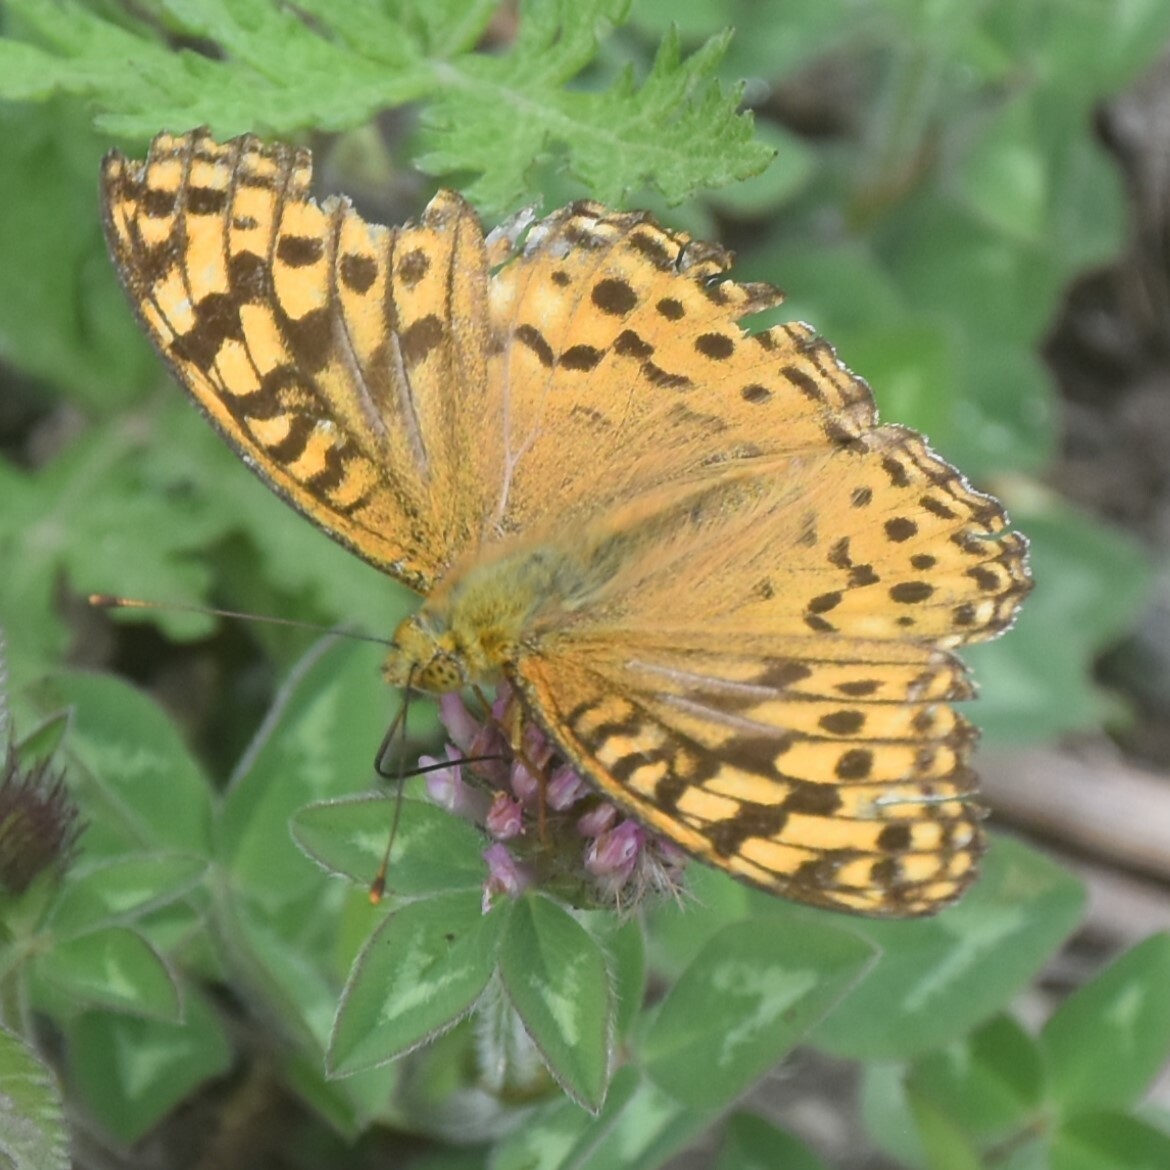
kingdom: Animalia
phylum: Arthropoda
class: Insecta
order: Lepidoptera
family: Nymphalidae
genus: Fabriciana
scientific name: Fabriciana kamala
